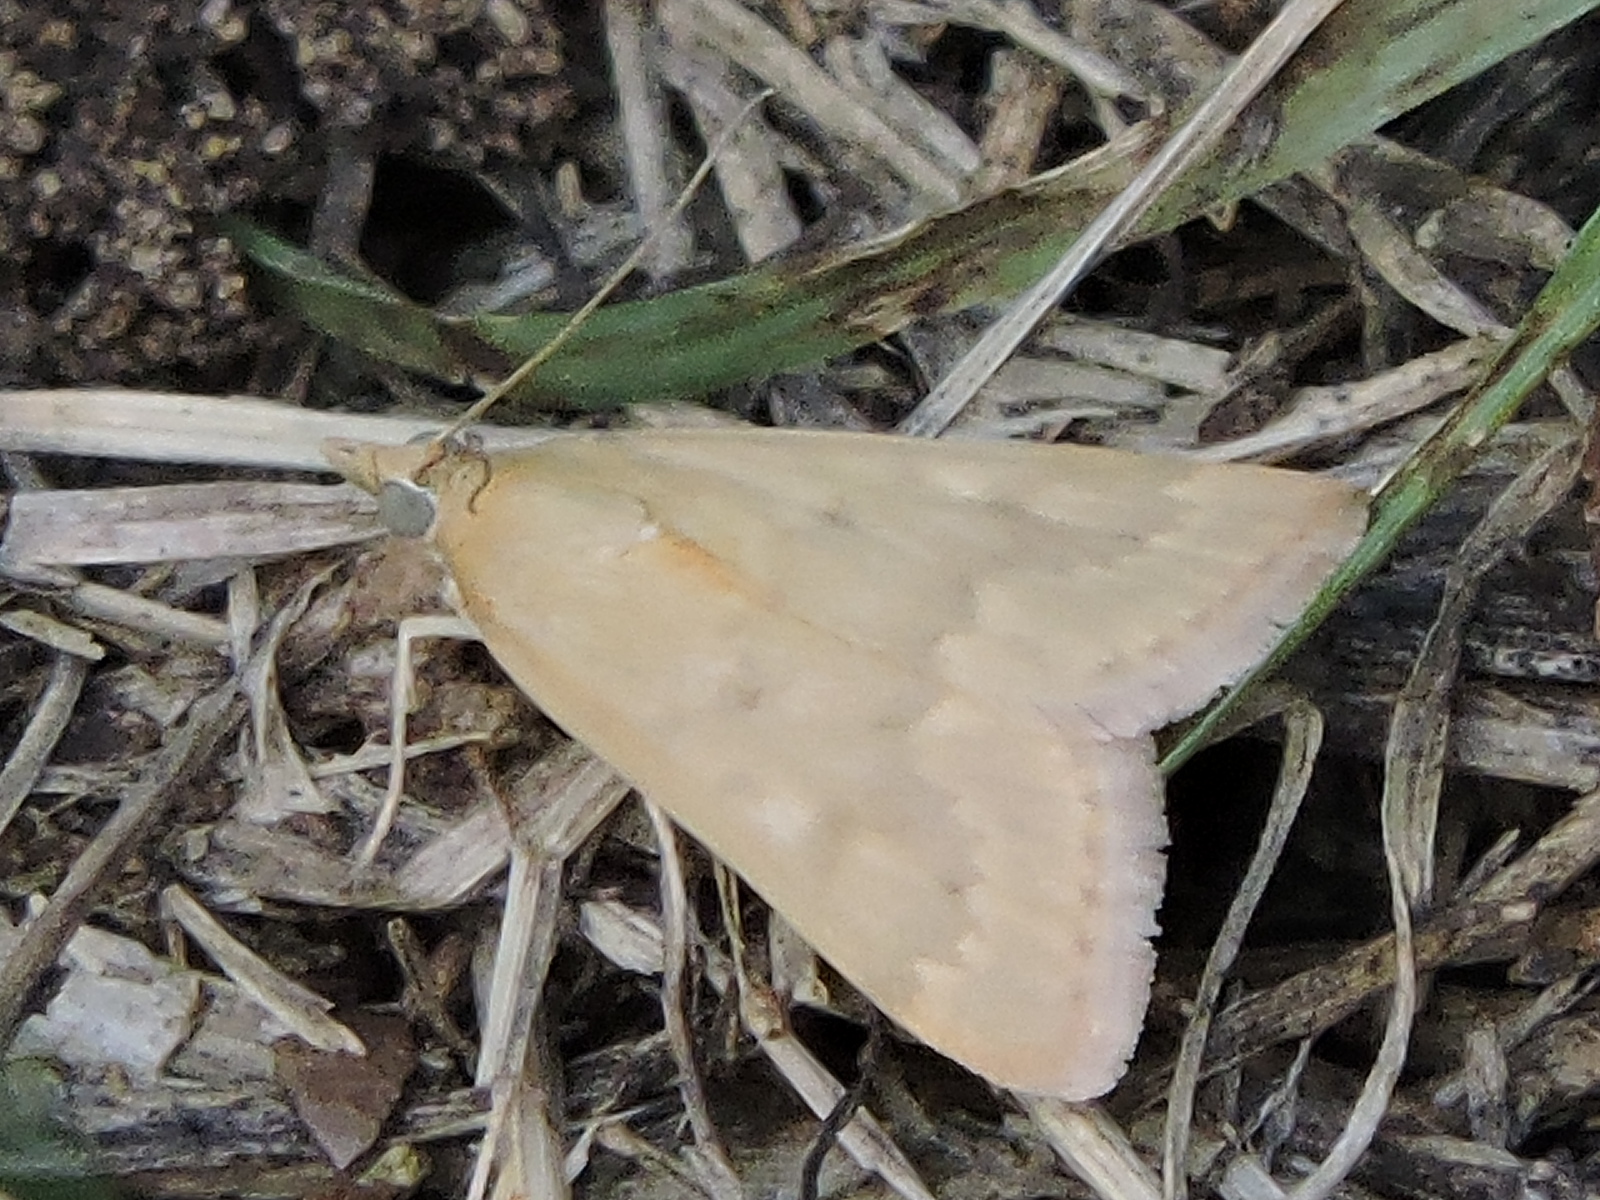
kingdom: Animalia
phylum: Arthropoda
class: Insecta
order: Lepidoptera
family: Crambidae
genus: Achyra
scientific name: Achyra rantalis
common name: Garden webworm
